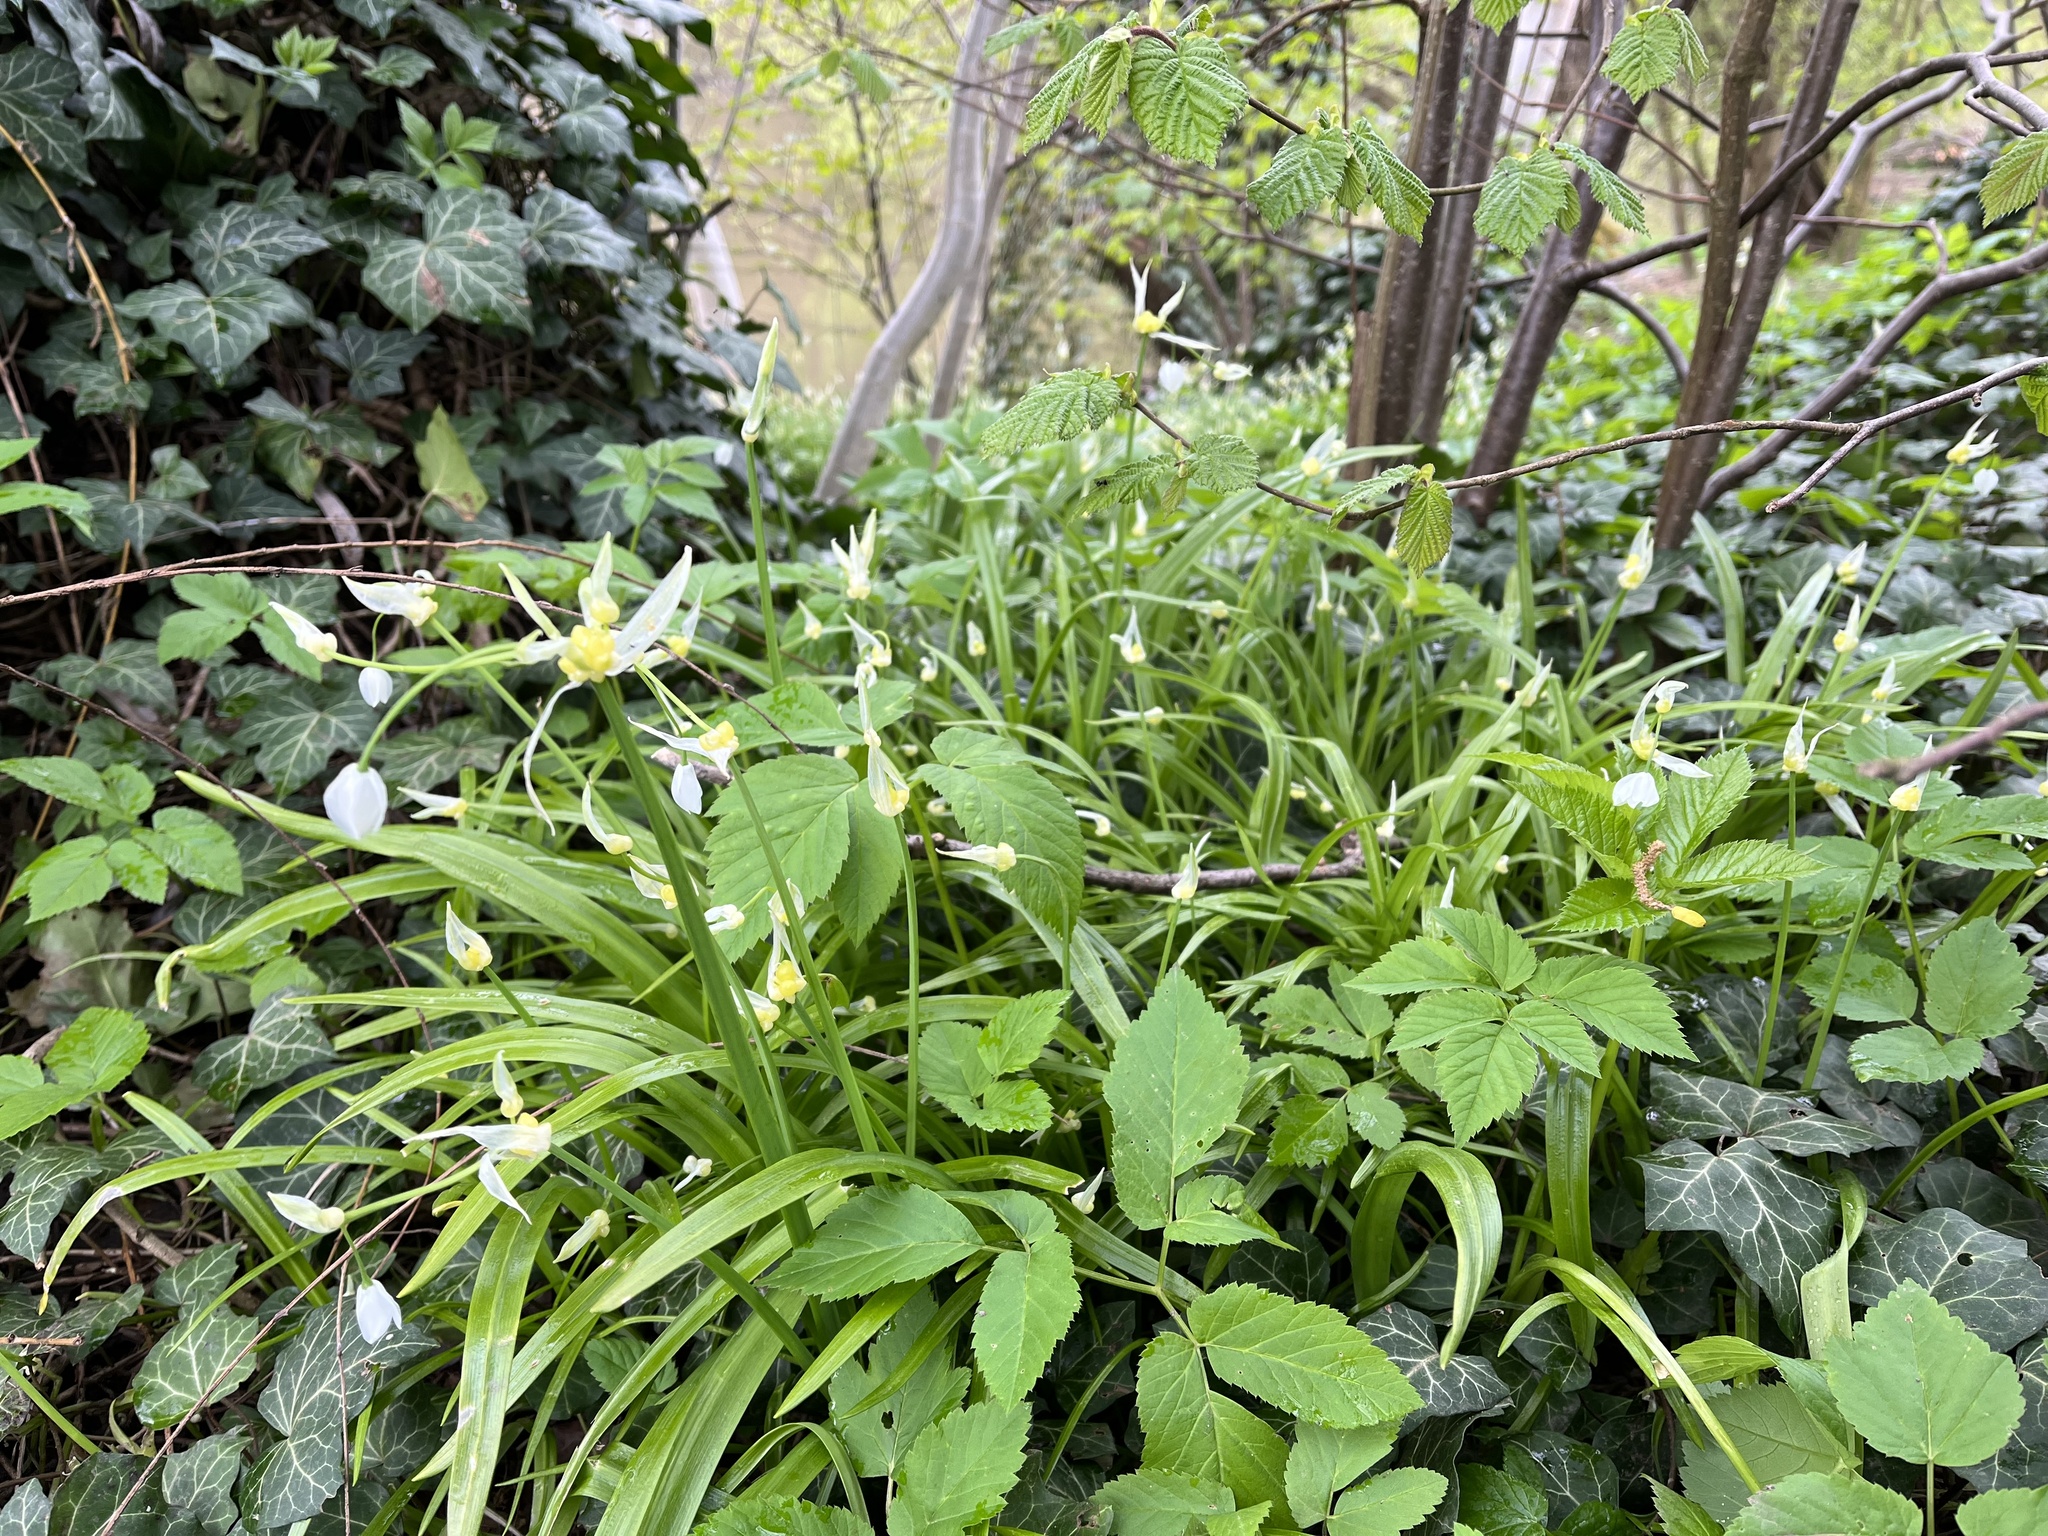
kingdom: Plantae
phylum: Tracheophyta
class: Liliopsida
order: Asparagales
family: Amaryllidaceae
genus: Allium
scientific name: Allium paradoxum
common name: Few-flowered garlic
